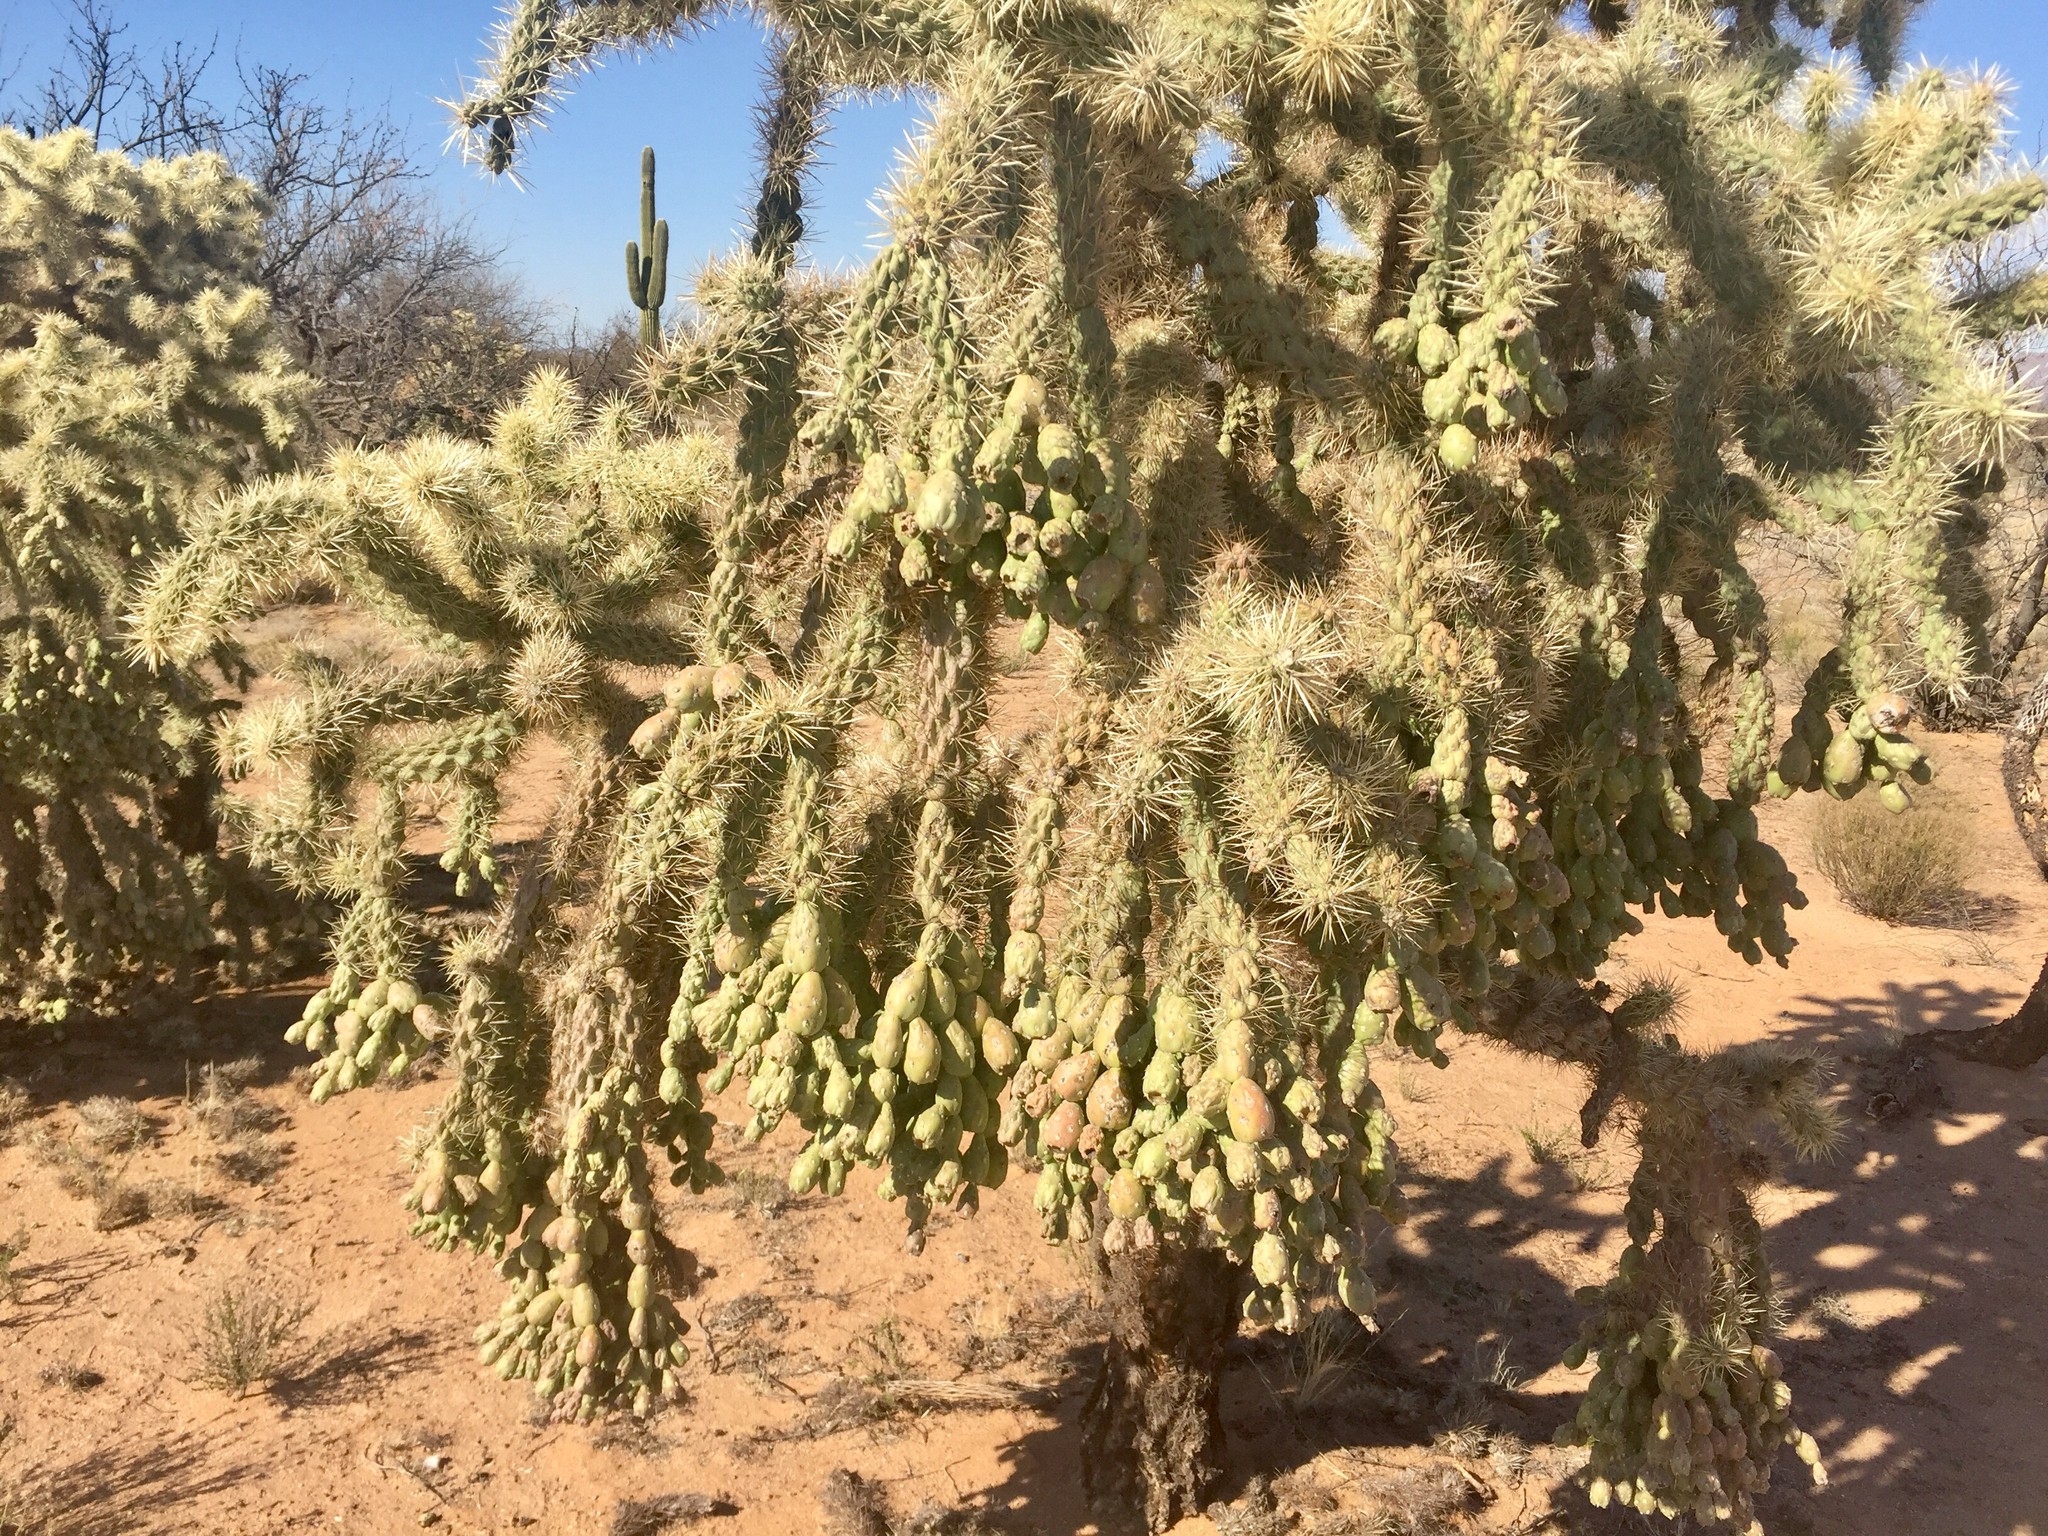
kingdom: Plantae
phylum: Tracheophyta
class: Magnoliopsida
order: Caryophyllales
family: Cactaceae
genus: Cylindropuntia
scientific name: Cylindropuntia fulgida
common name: Jumping cholla
